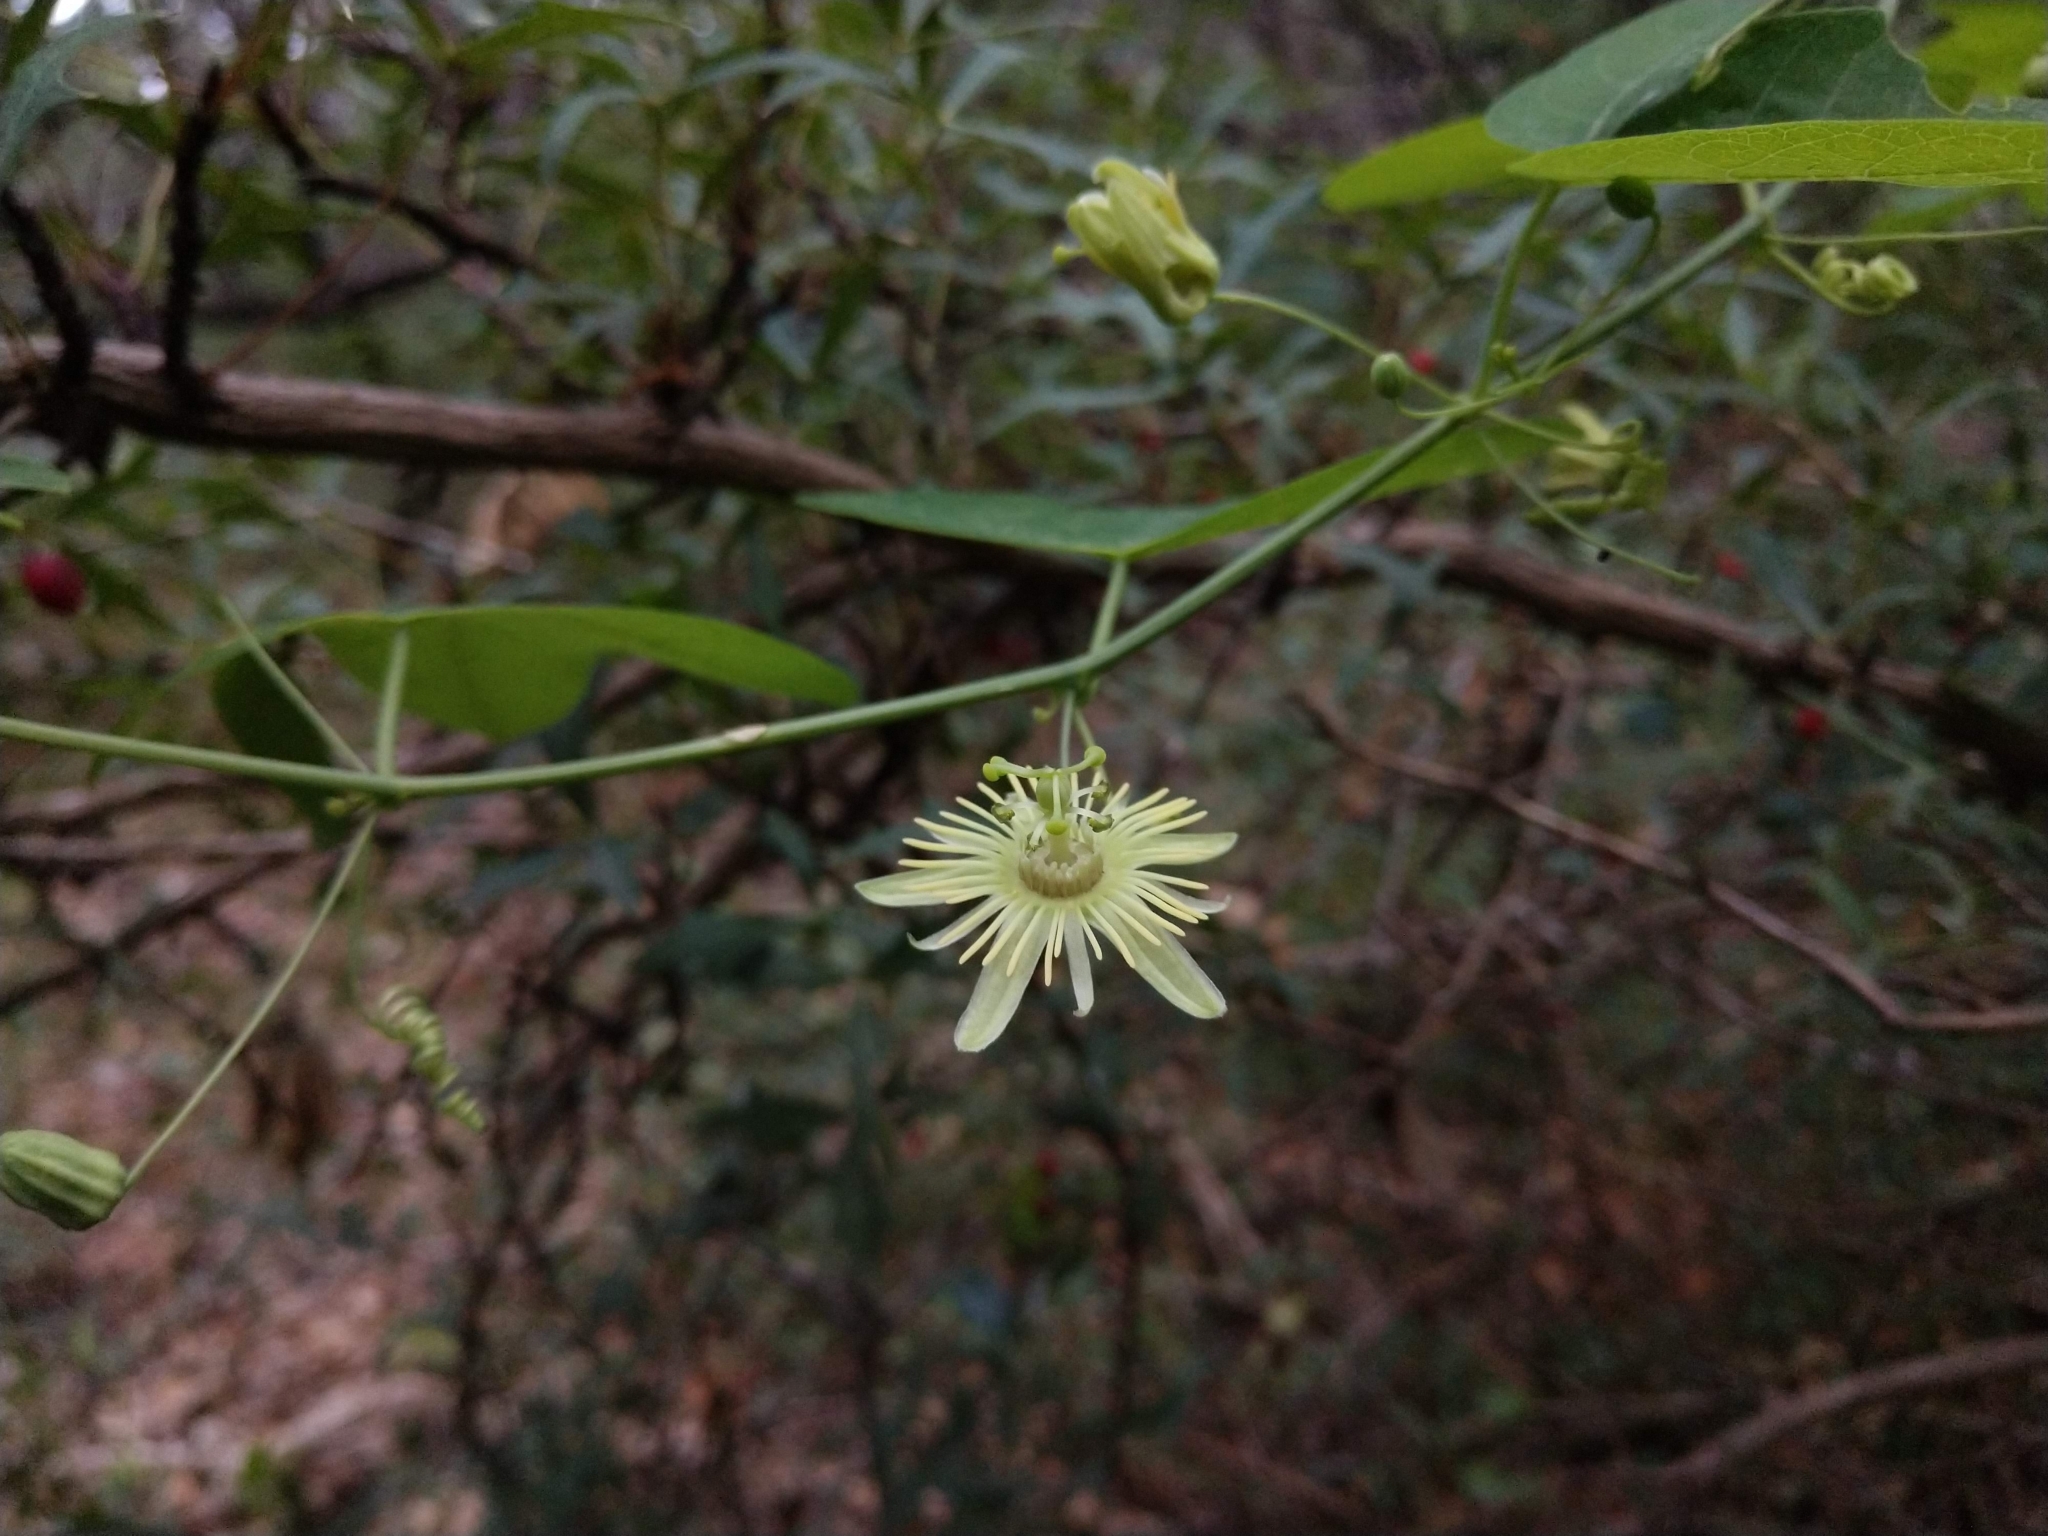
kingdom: Plantae
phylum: Tracheophyta
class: Magnoliopsida
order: Malpighiales
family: Passifloraceae
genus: Passiflora
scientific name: Passiflora lutea
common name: Yellow passionflower
